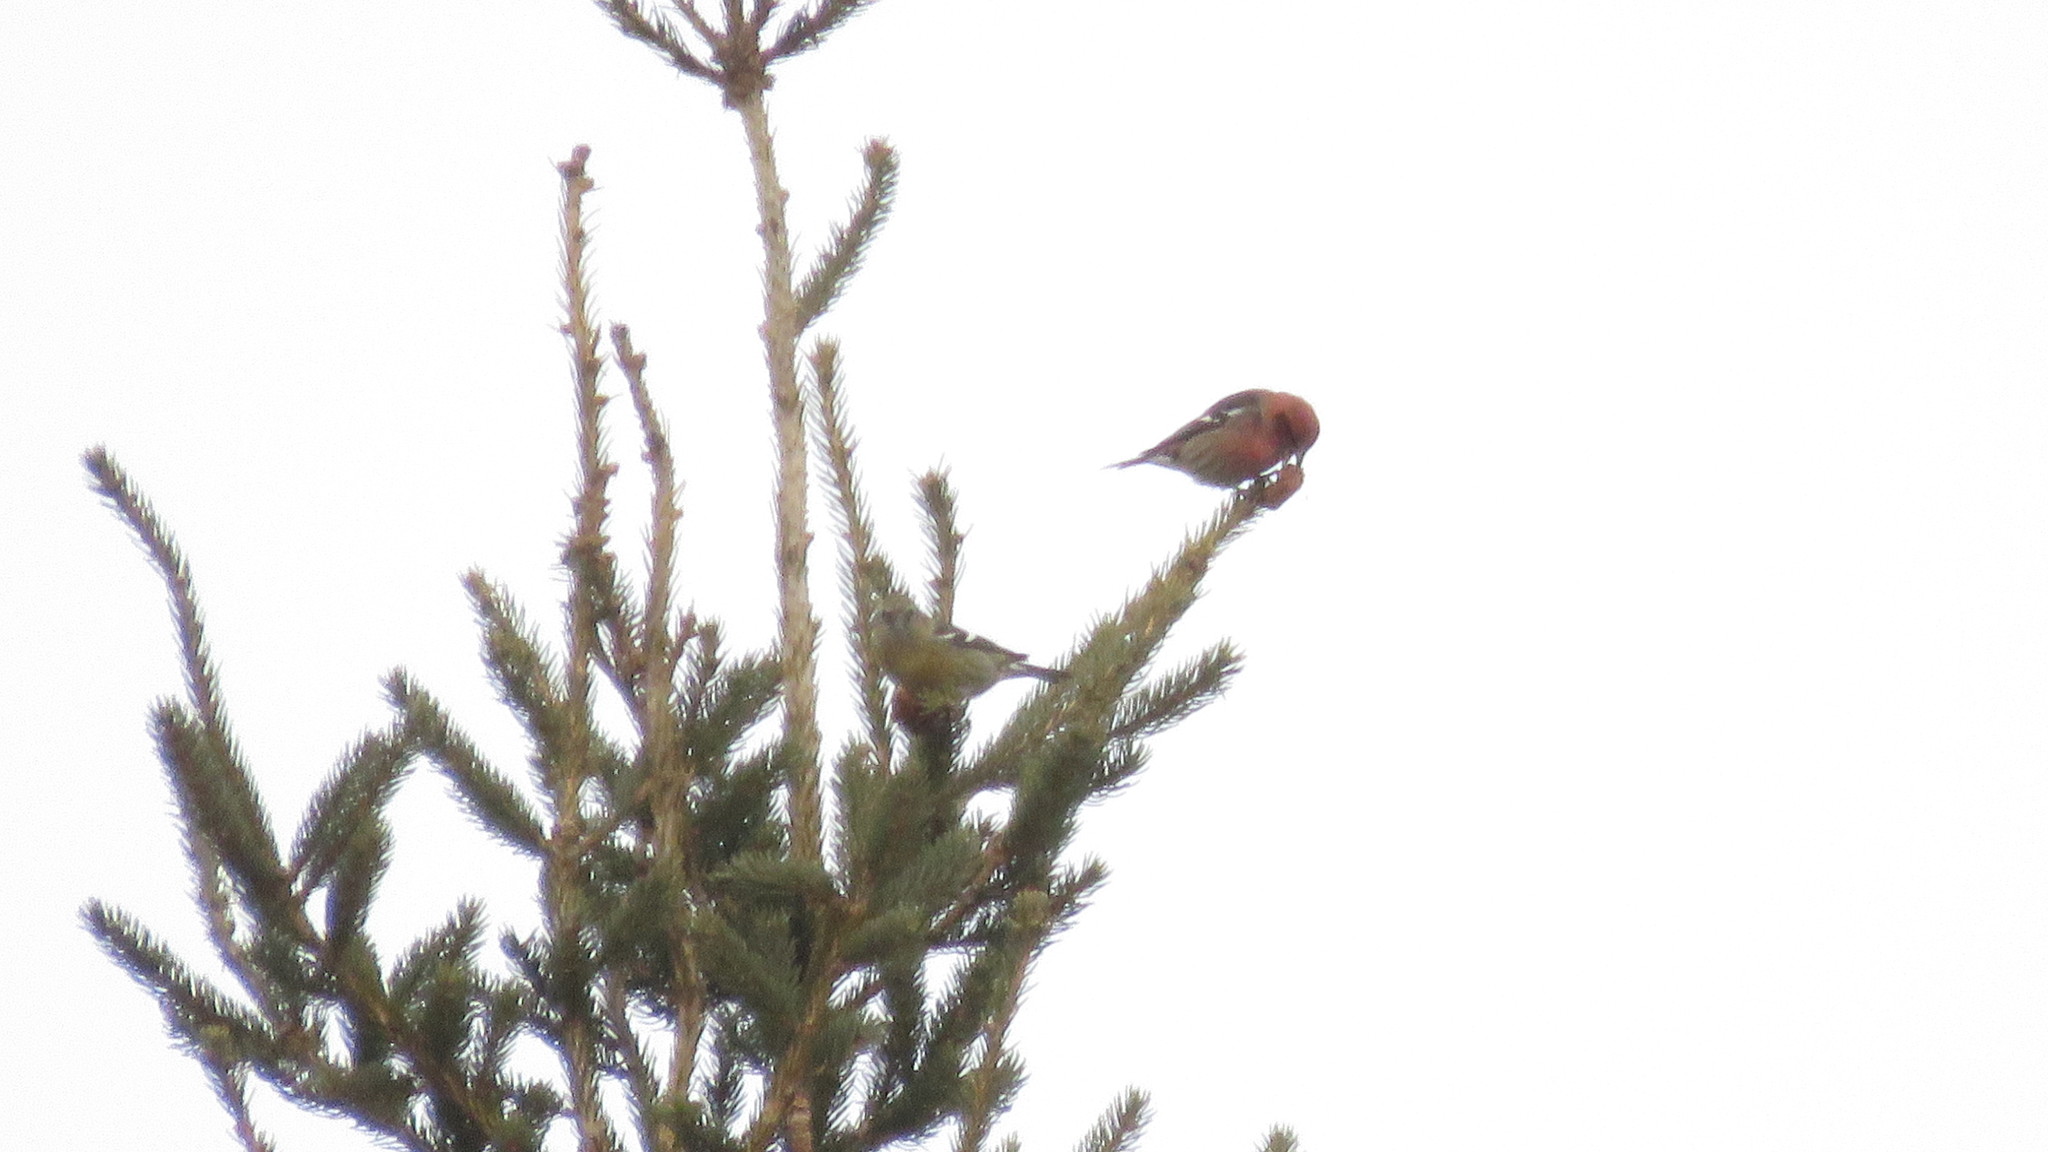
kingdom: Animalia
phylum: Chordata
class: Aves
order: Passeriformes
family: Fringillidae
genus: Loxia
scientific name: Loxia leucoptera
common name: Two-barred crossbill
